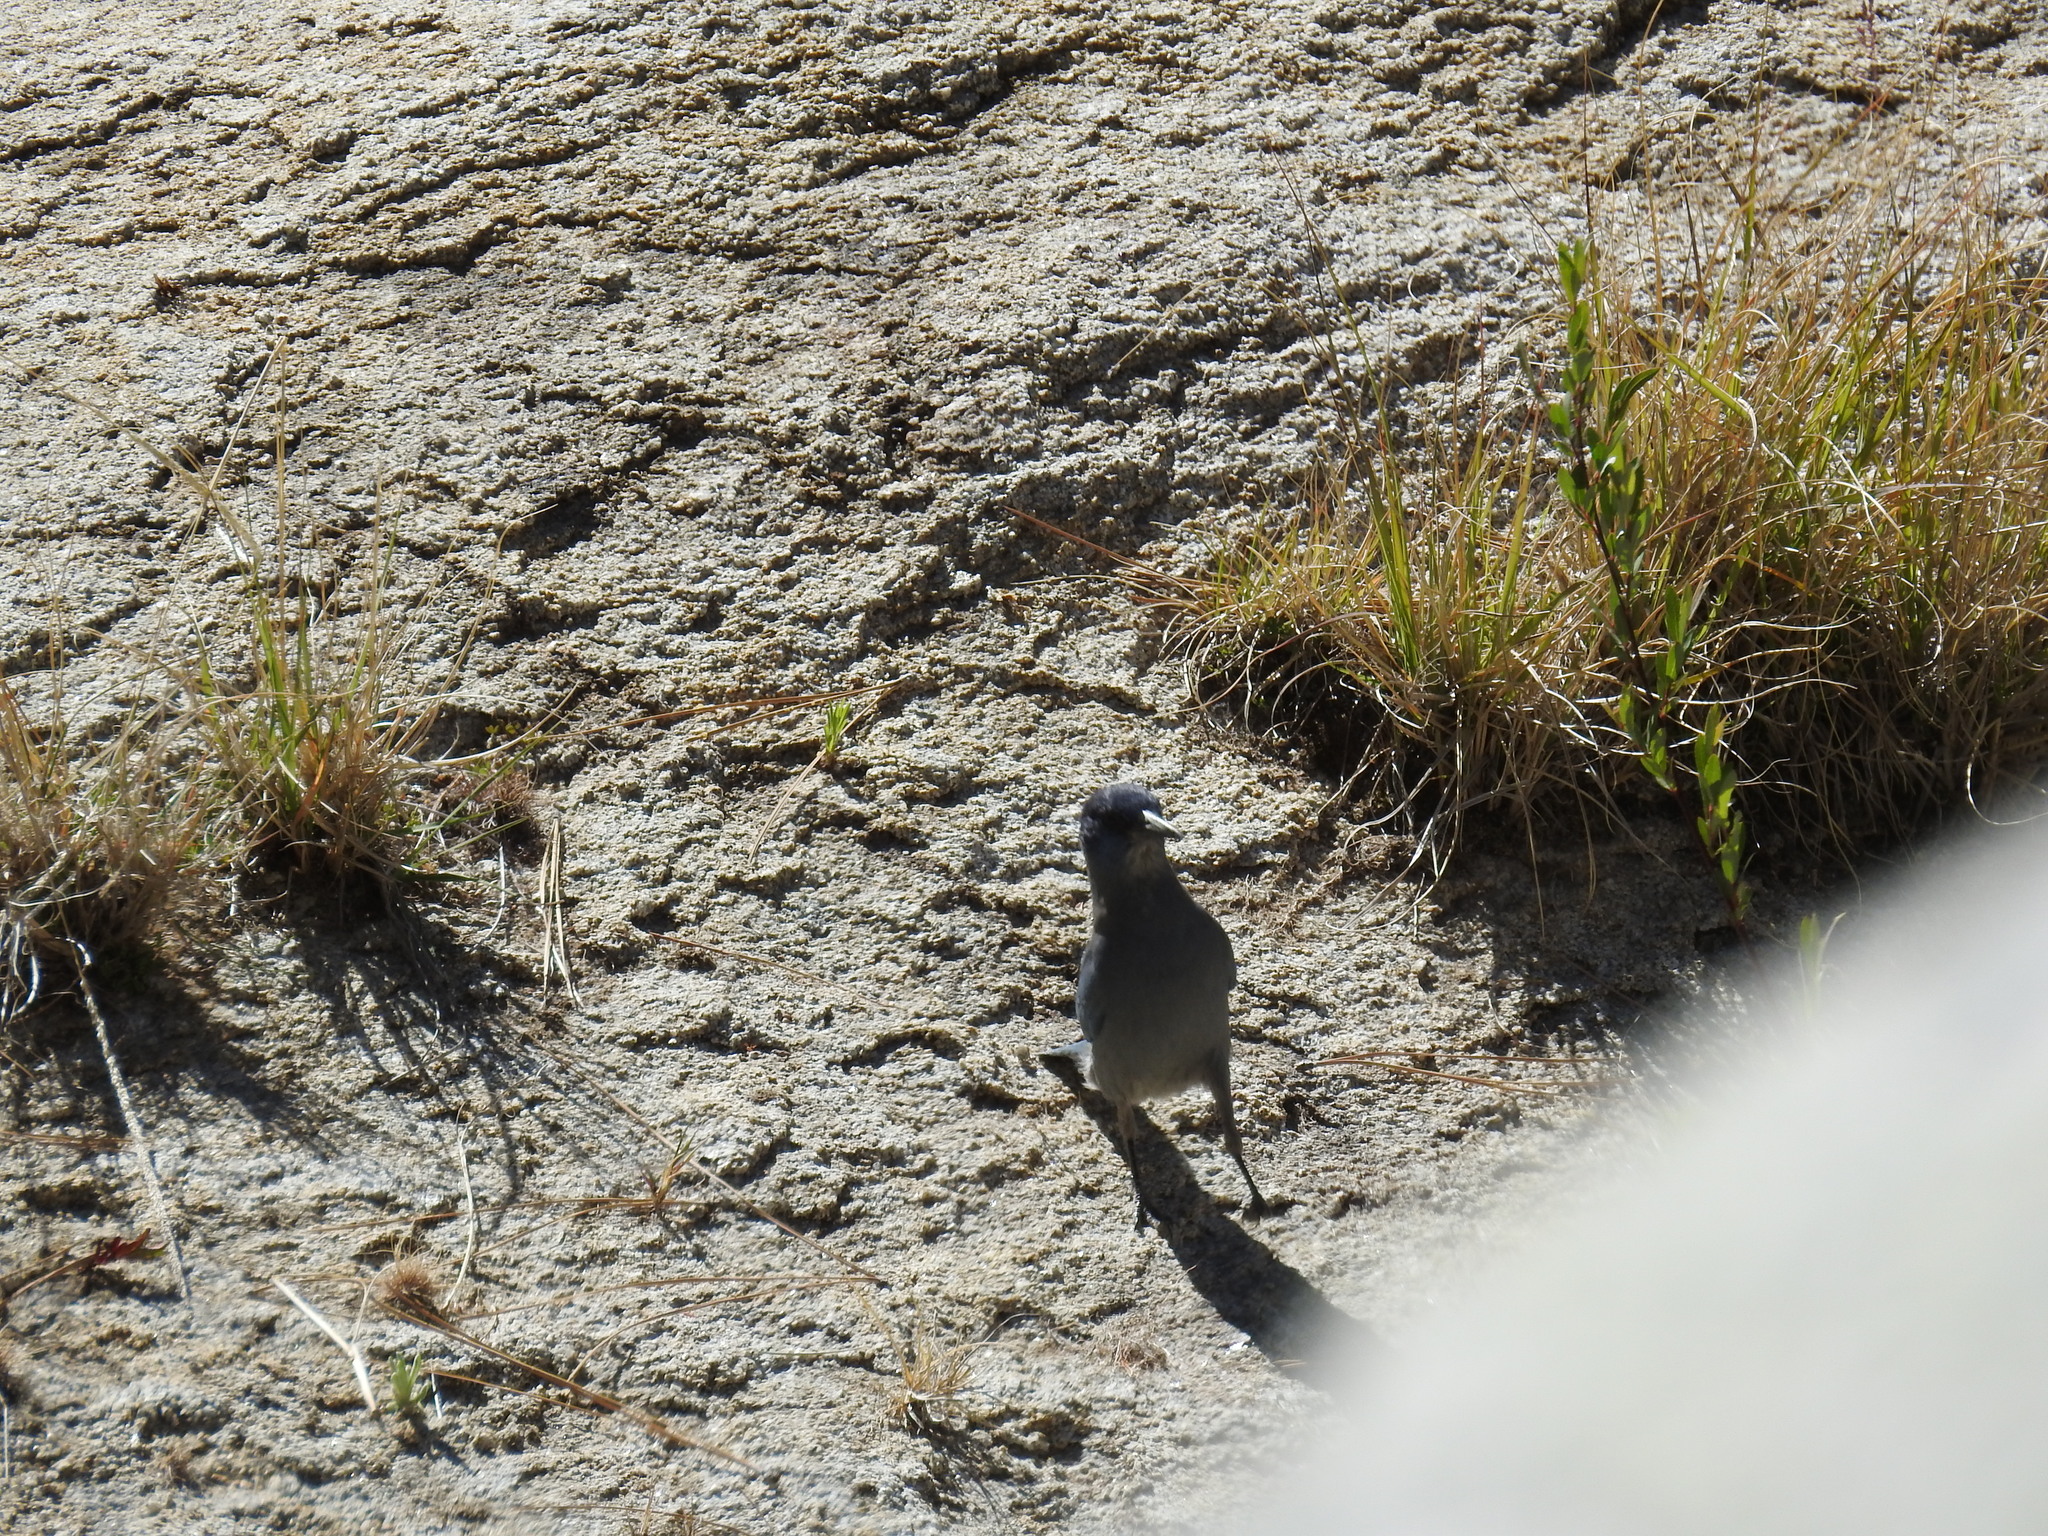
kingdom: Animalia
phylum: Chordata
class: Aves
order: Passeriformes
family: Corvidae
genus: Gymnorhinus
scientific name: Gymnorhinus cyanocephalus
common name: Pinyon jay
